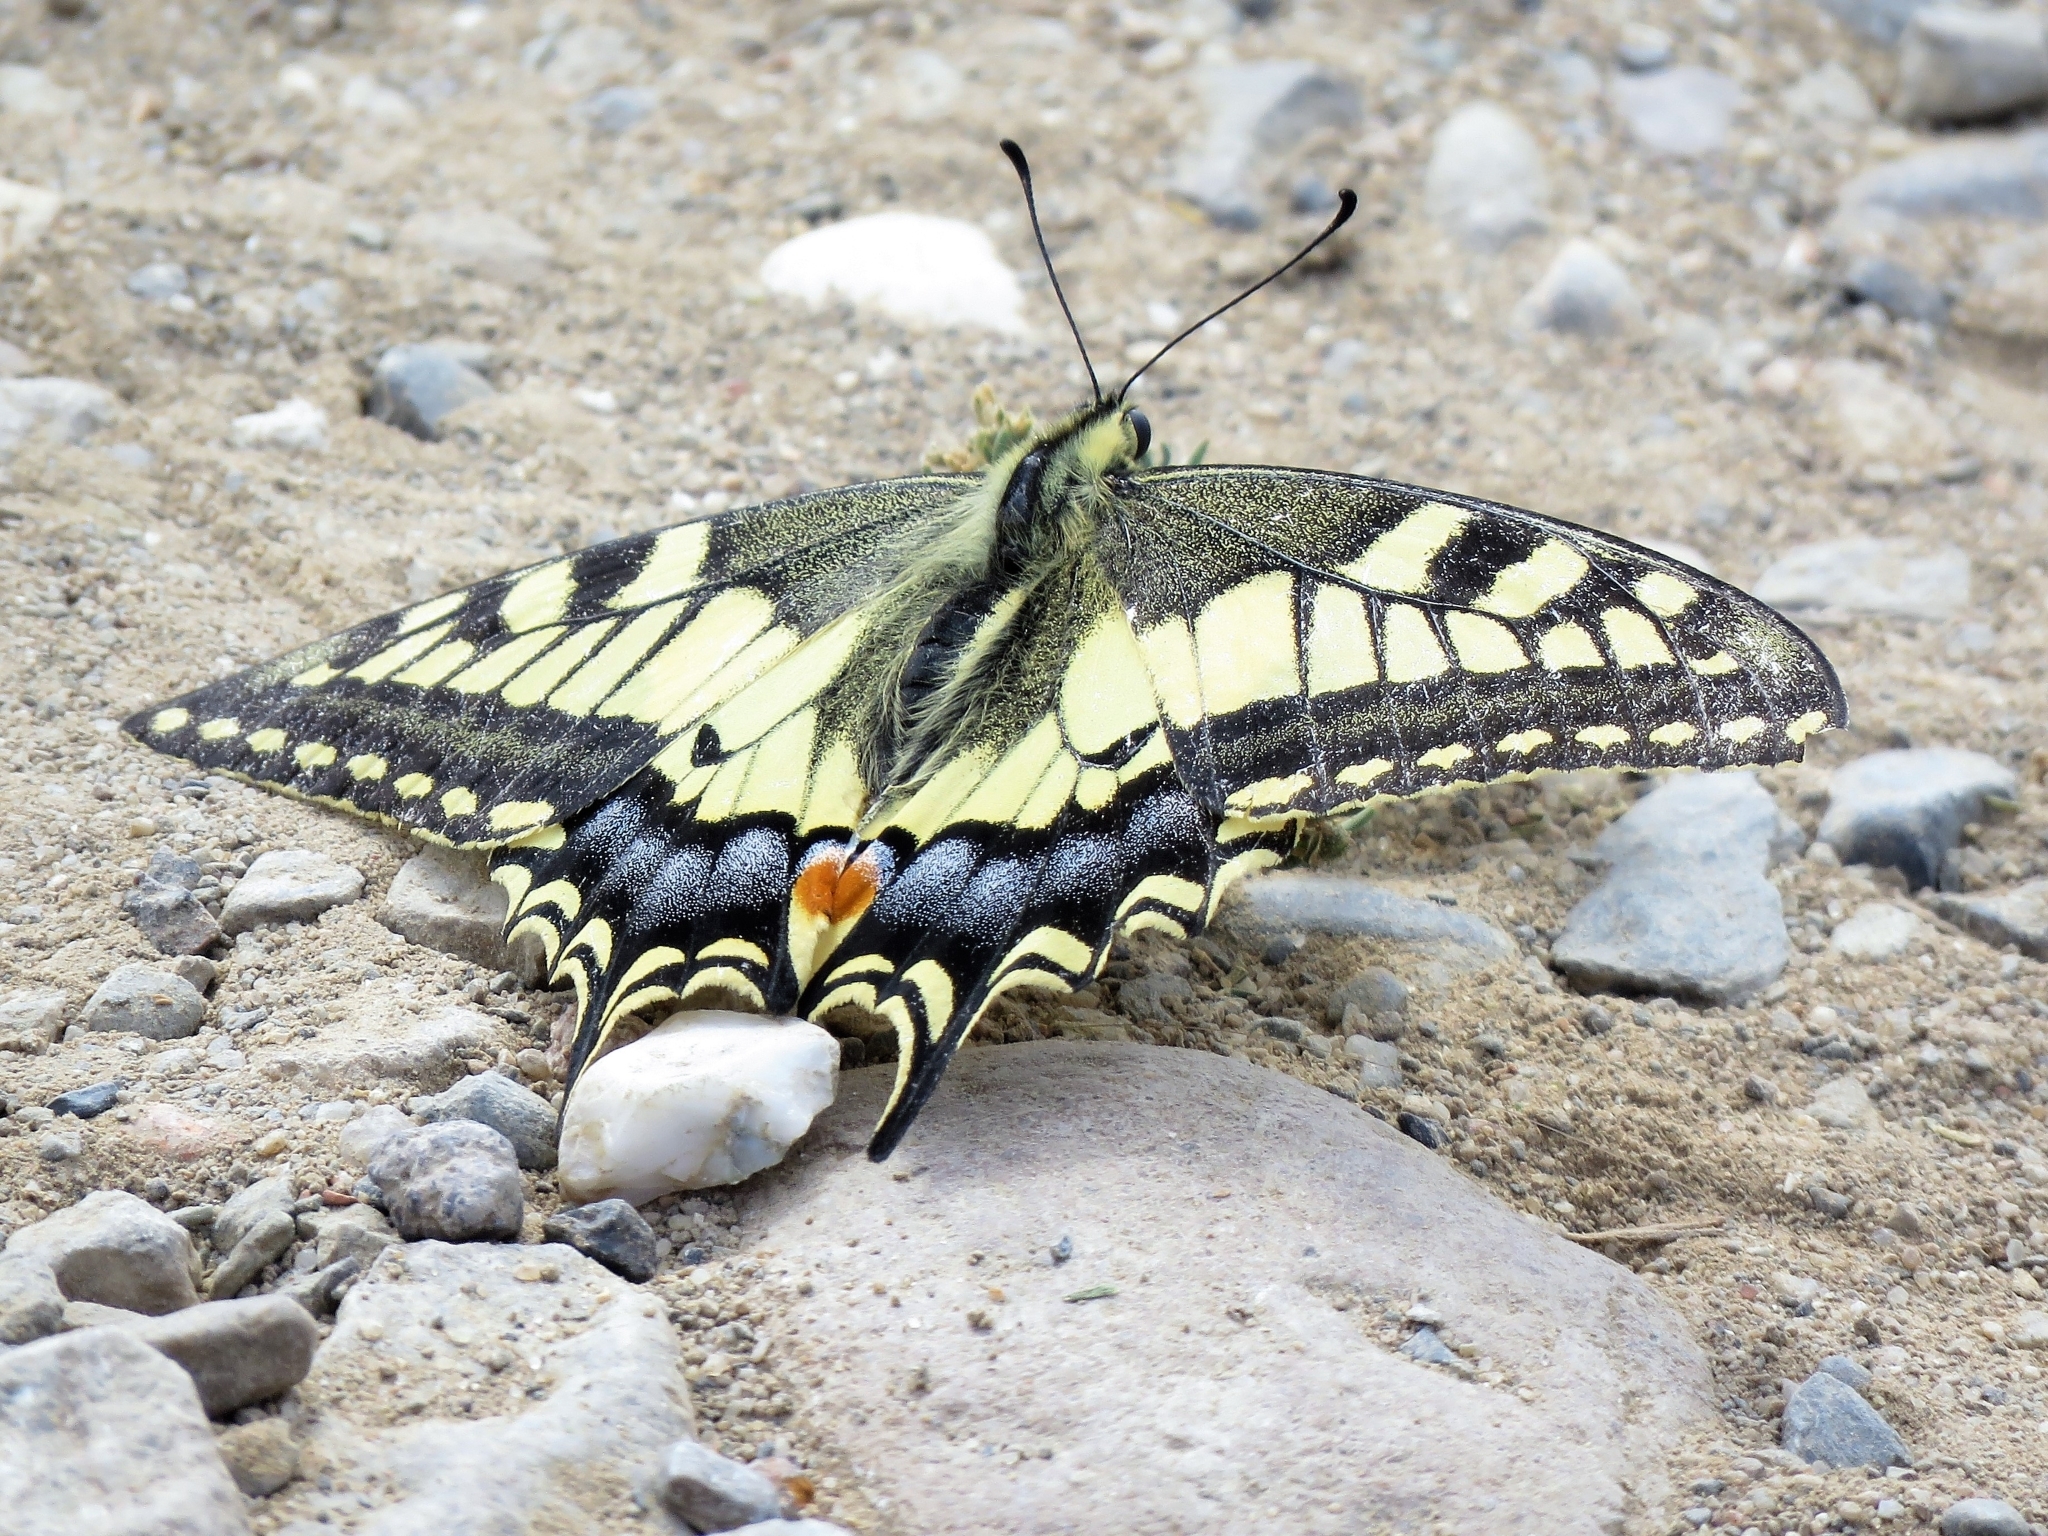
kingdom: Animalia
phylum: Arthropoda
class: Insecta
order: Lepidoptera
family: Papilionidae
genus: Papilio
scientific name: Papilio machaon
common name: Swallowtail
